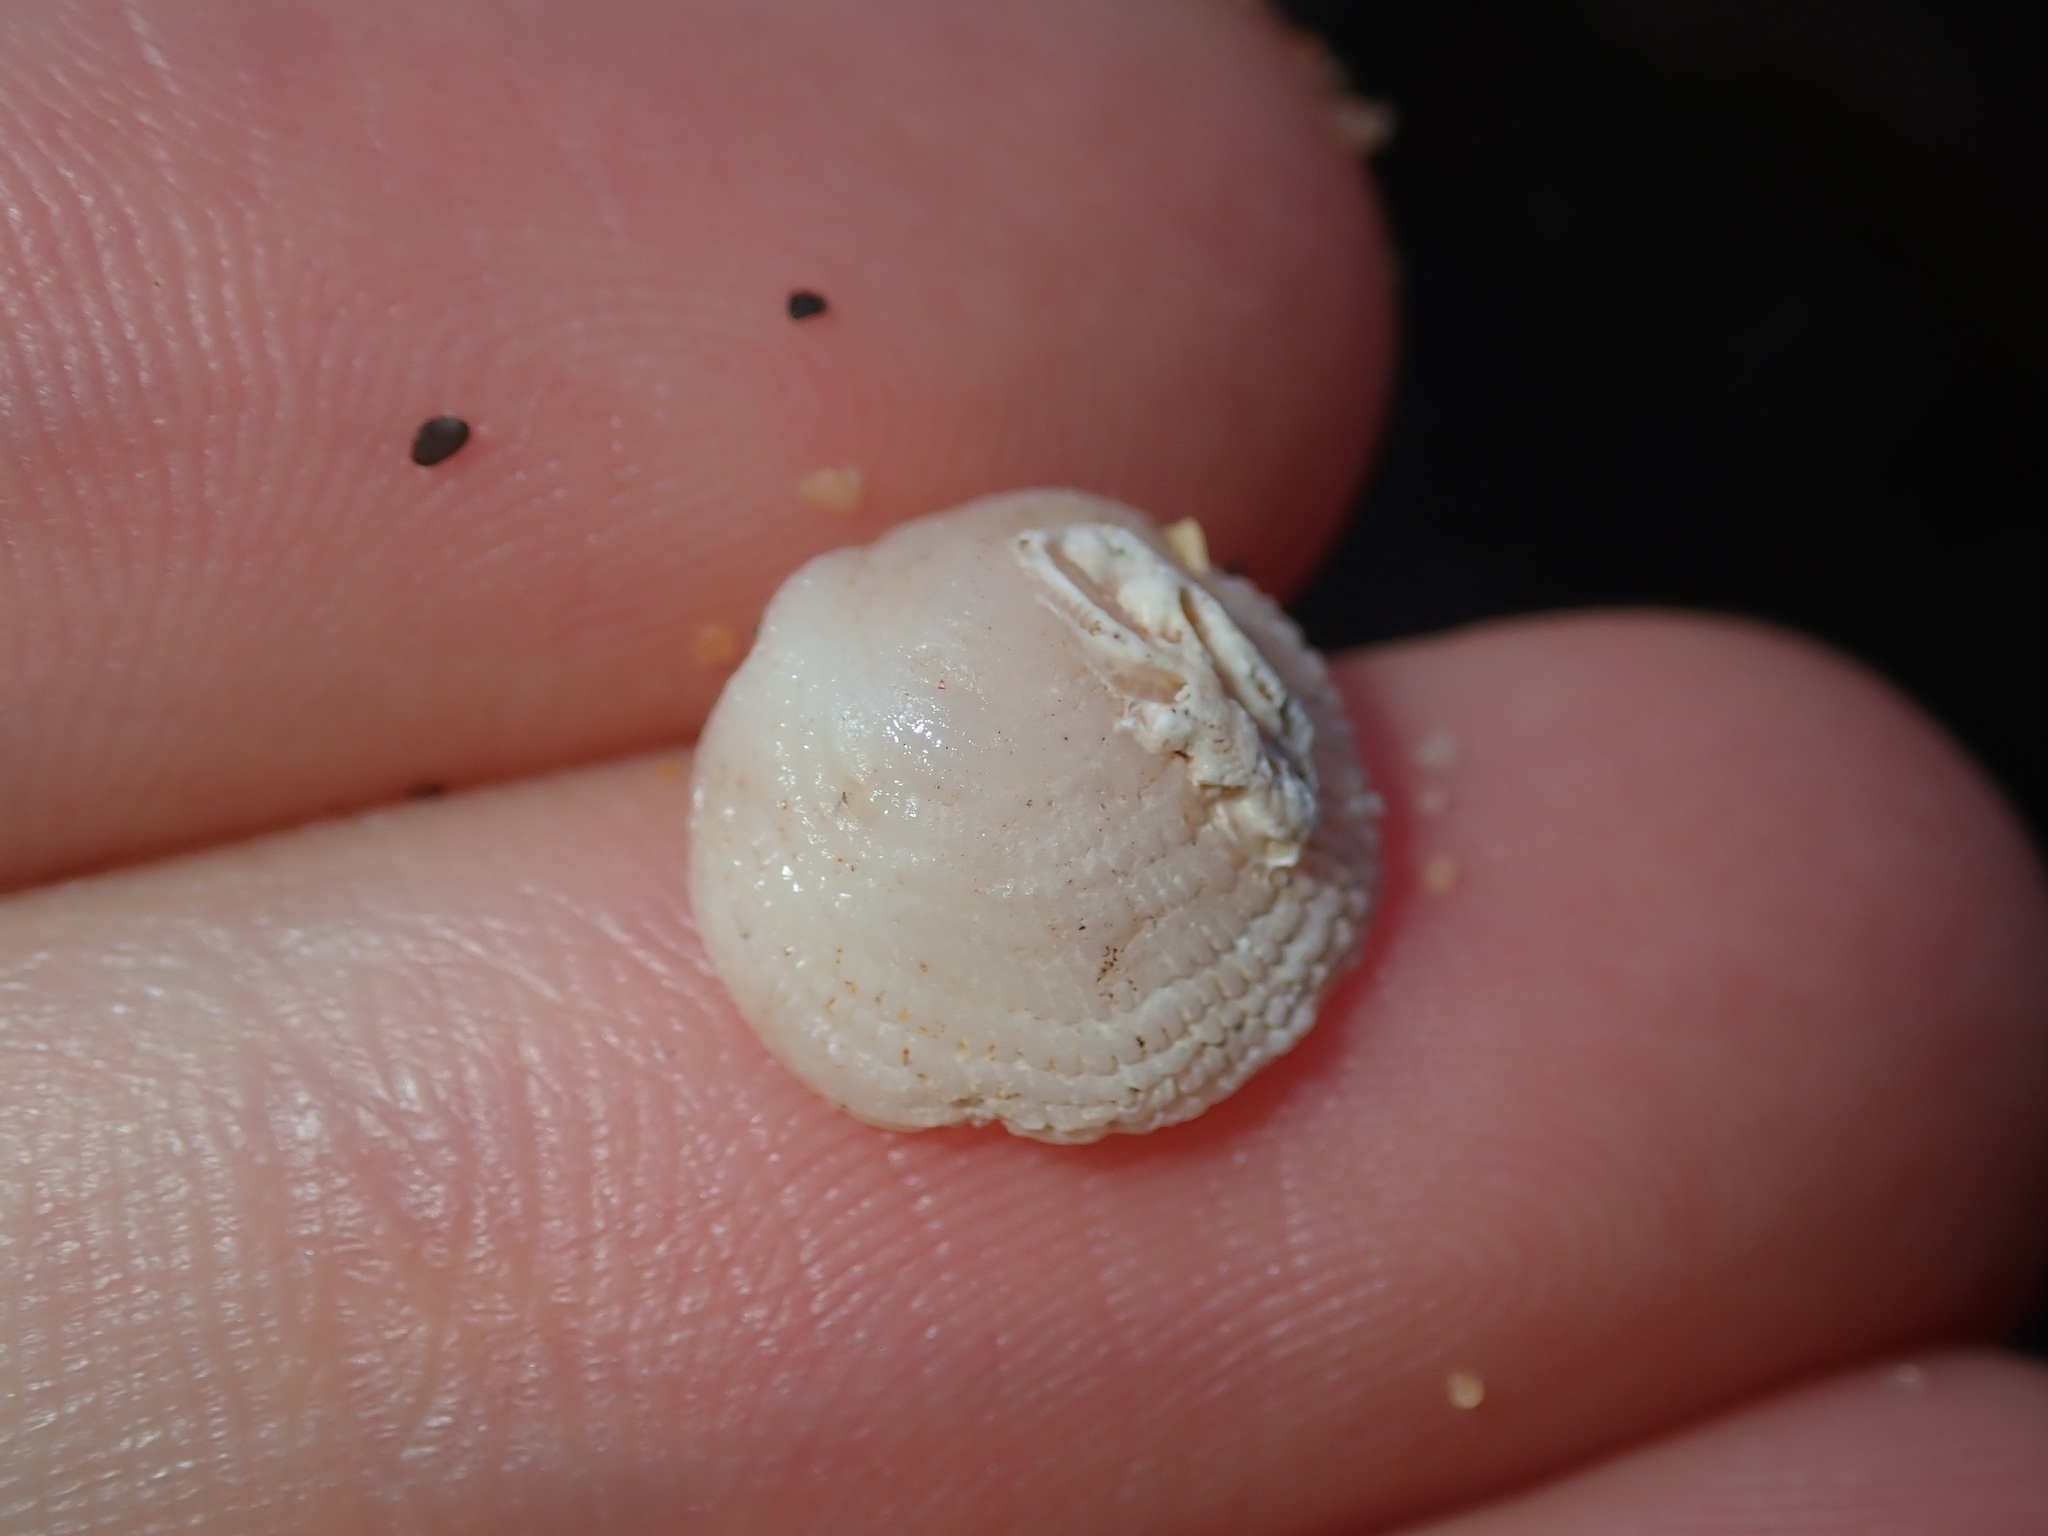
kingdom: Animalia
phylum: Mollusca
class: Gastropoda
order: Littorinimorpha
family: Hipponicidae
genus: Antisabia
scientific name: Antisabia foliacea
